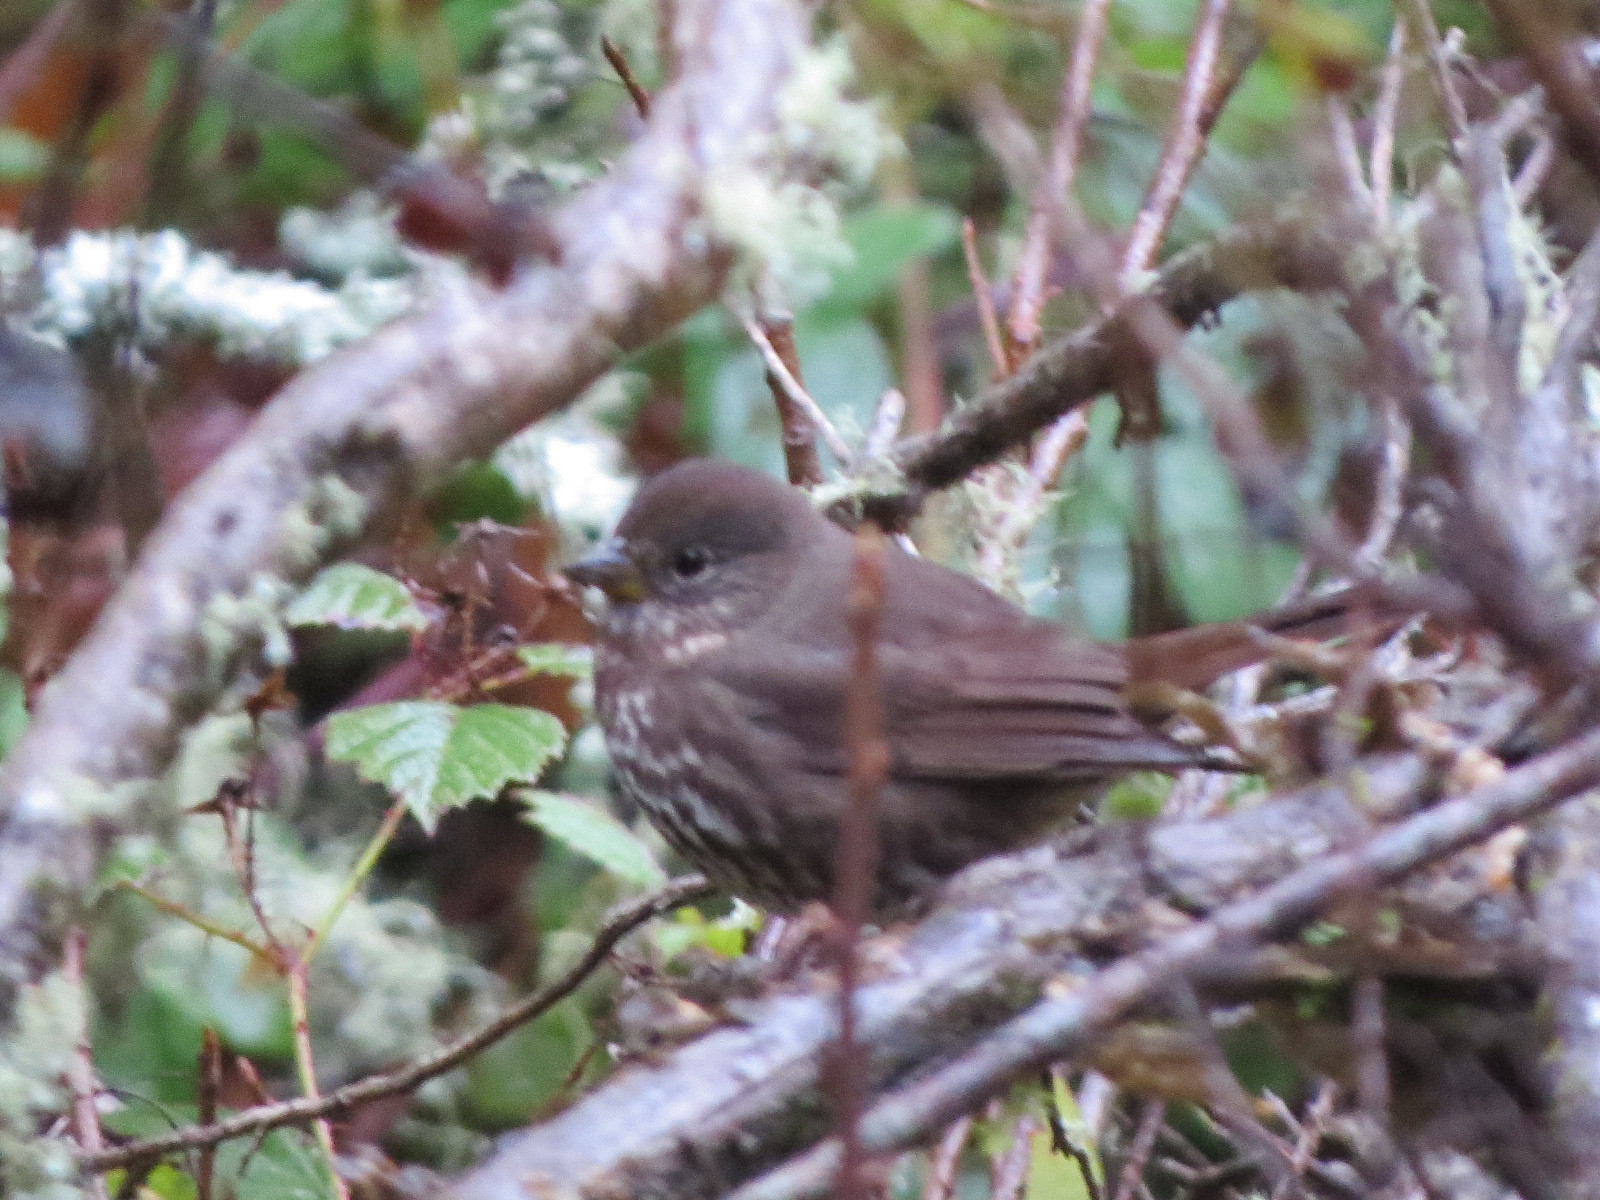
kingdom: Animalia
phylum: Chordata
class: Aves
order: Passeriformes
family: Passerellidae
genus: Passerella
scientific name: Passerella iliaca
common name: Fox sparrow
